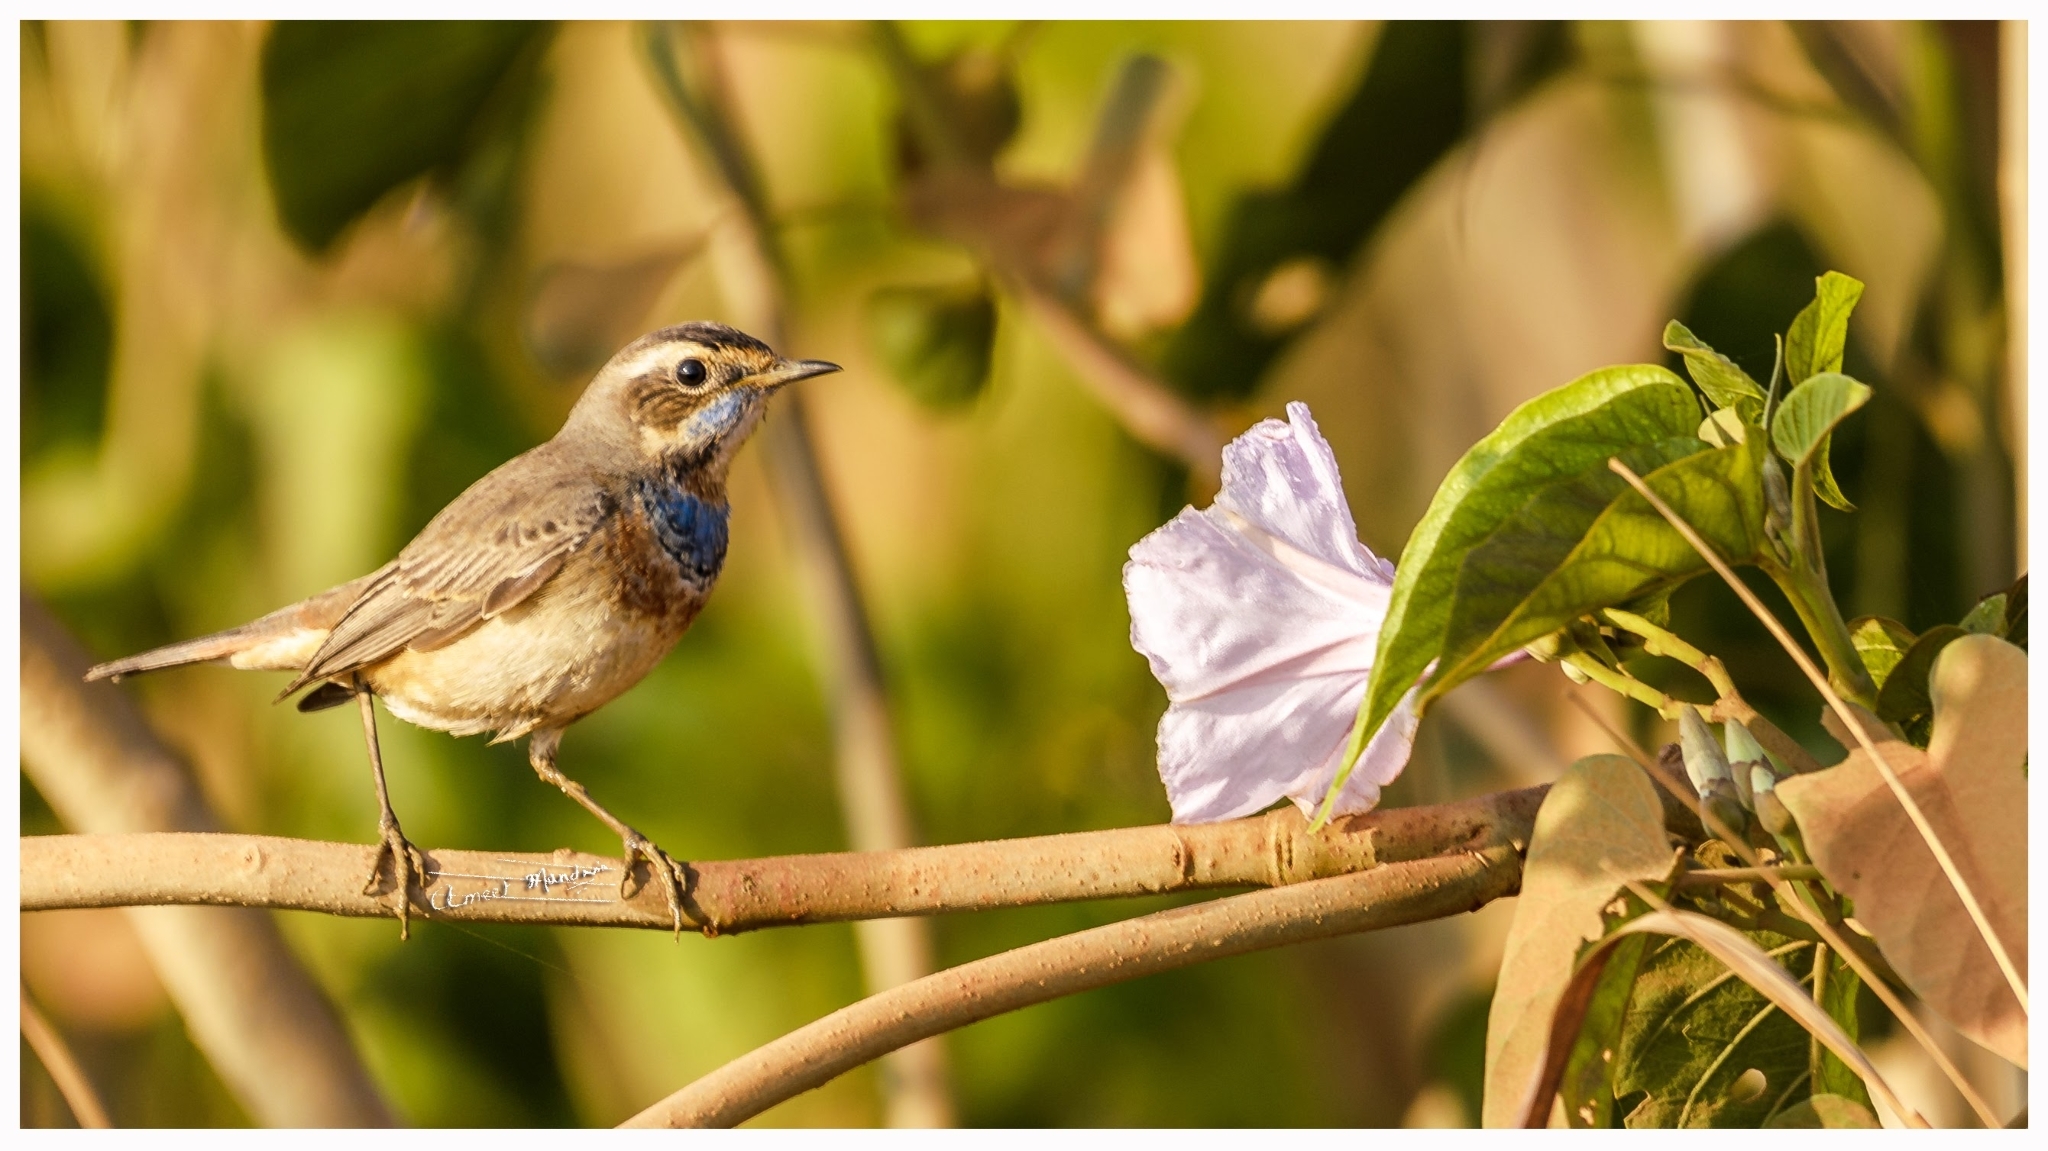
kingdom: Animalia
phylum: Chordata
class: Aves
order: Passeriformes
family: Muscicapidae
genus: Luscinia
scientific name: Luscinia svecica
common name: Bluethroat
